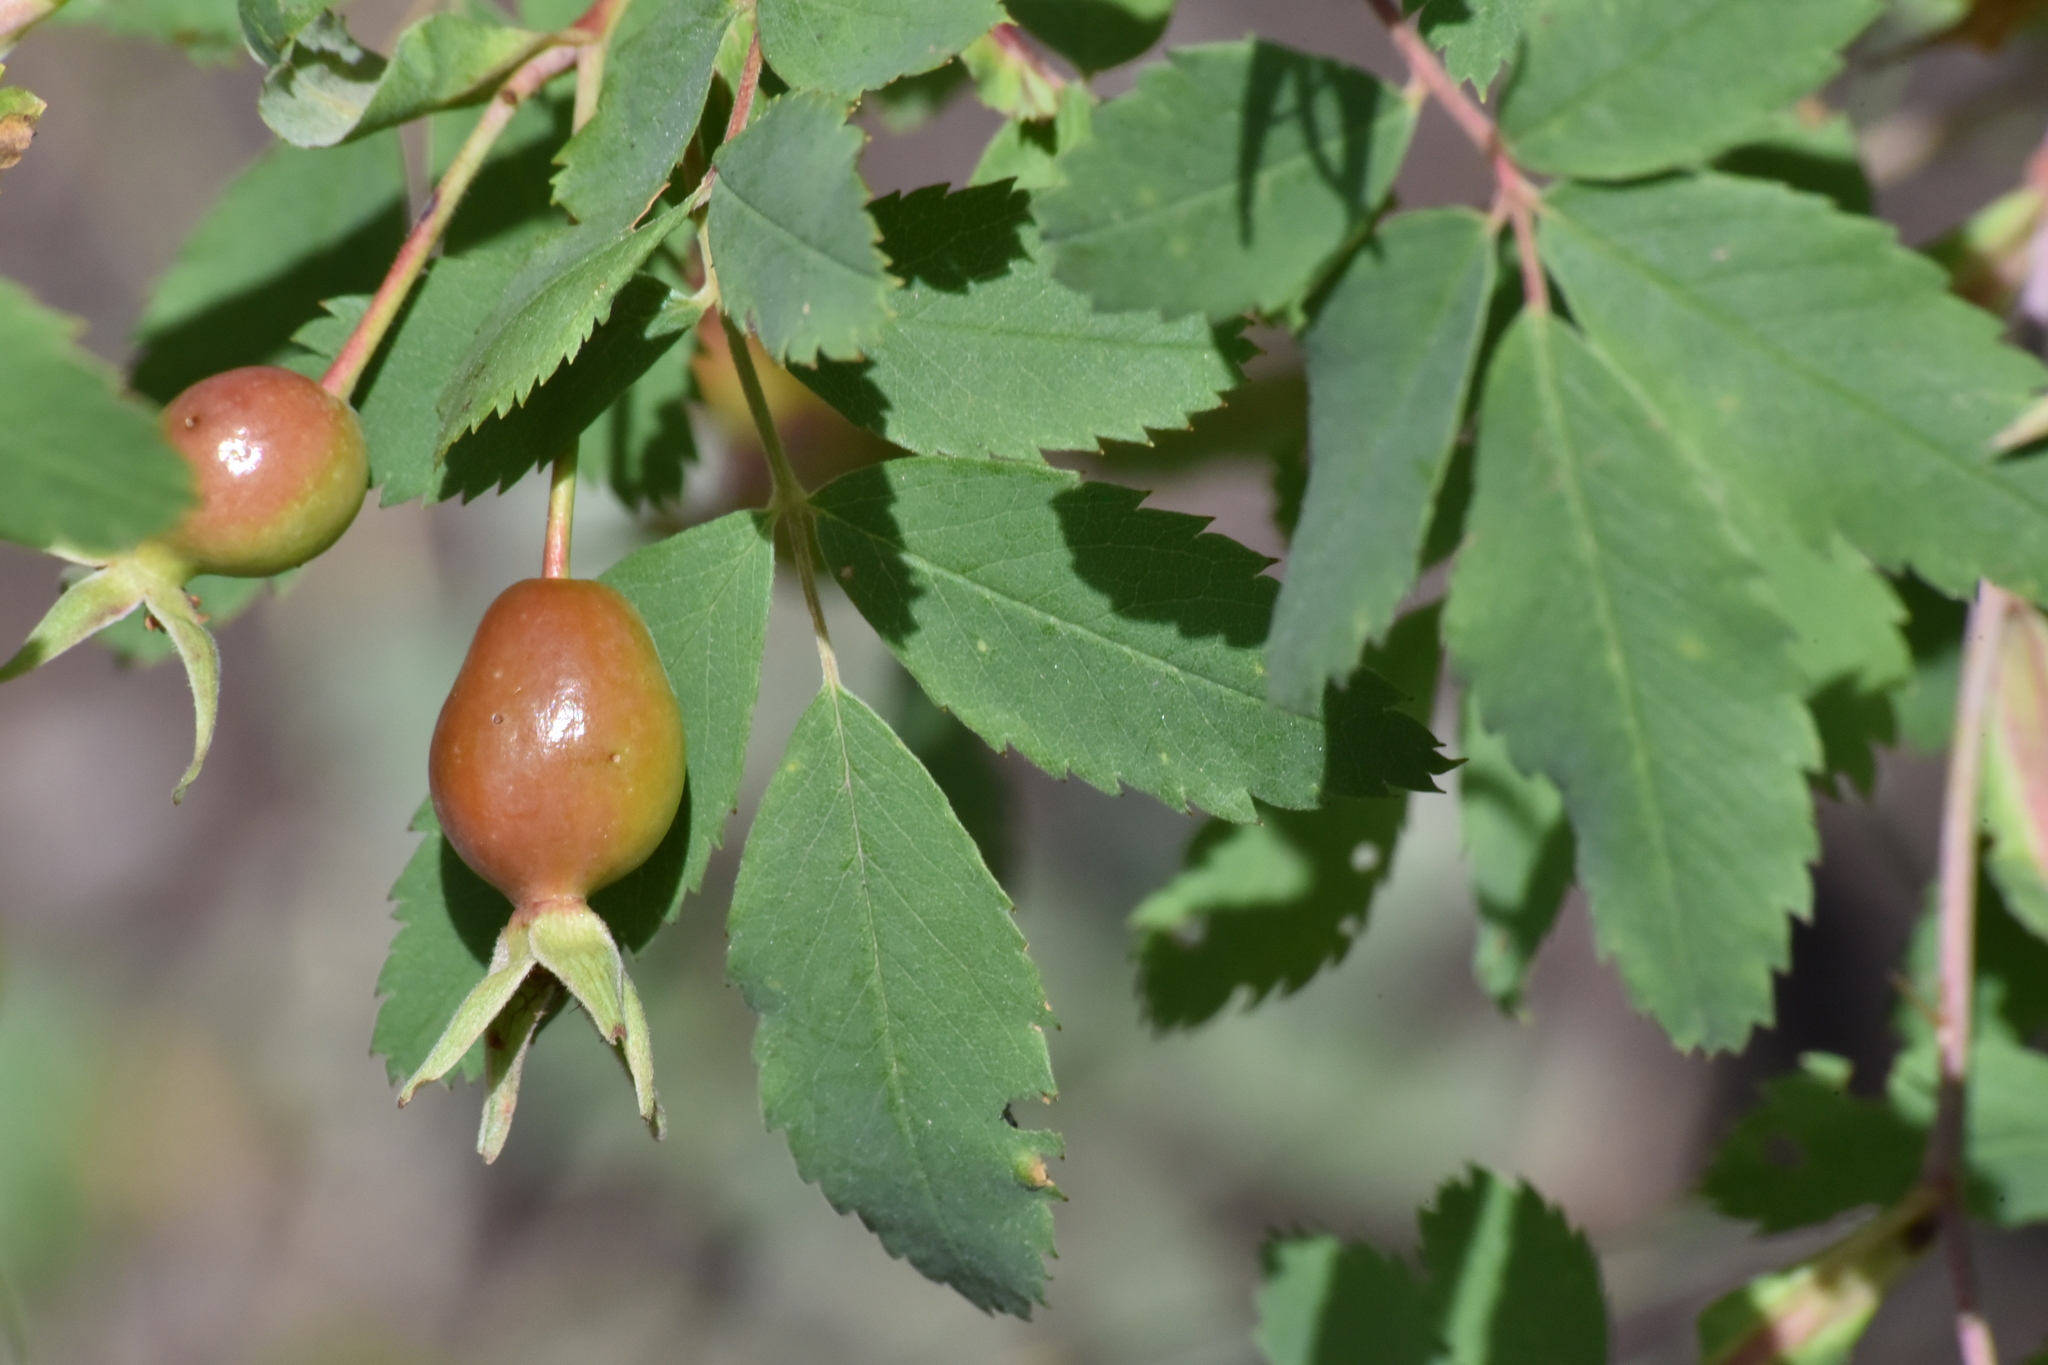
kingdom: Plantae
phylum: Tracheophyta
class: Magnoliopsida
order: Rosales
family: Rosaceae
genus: Rosa
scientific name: Rosa woodsii
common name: Woods's rose
